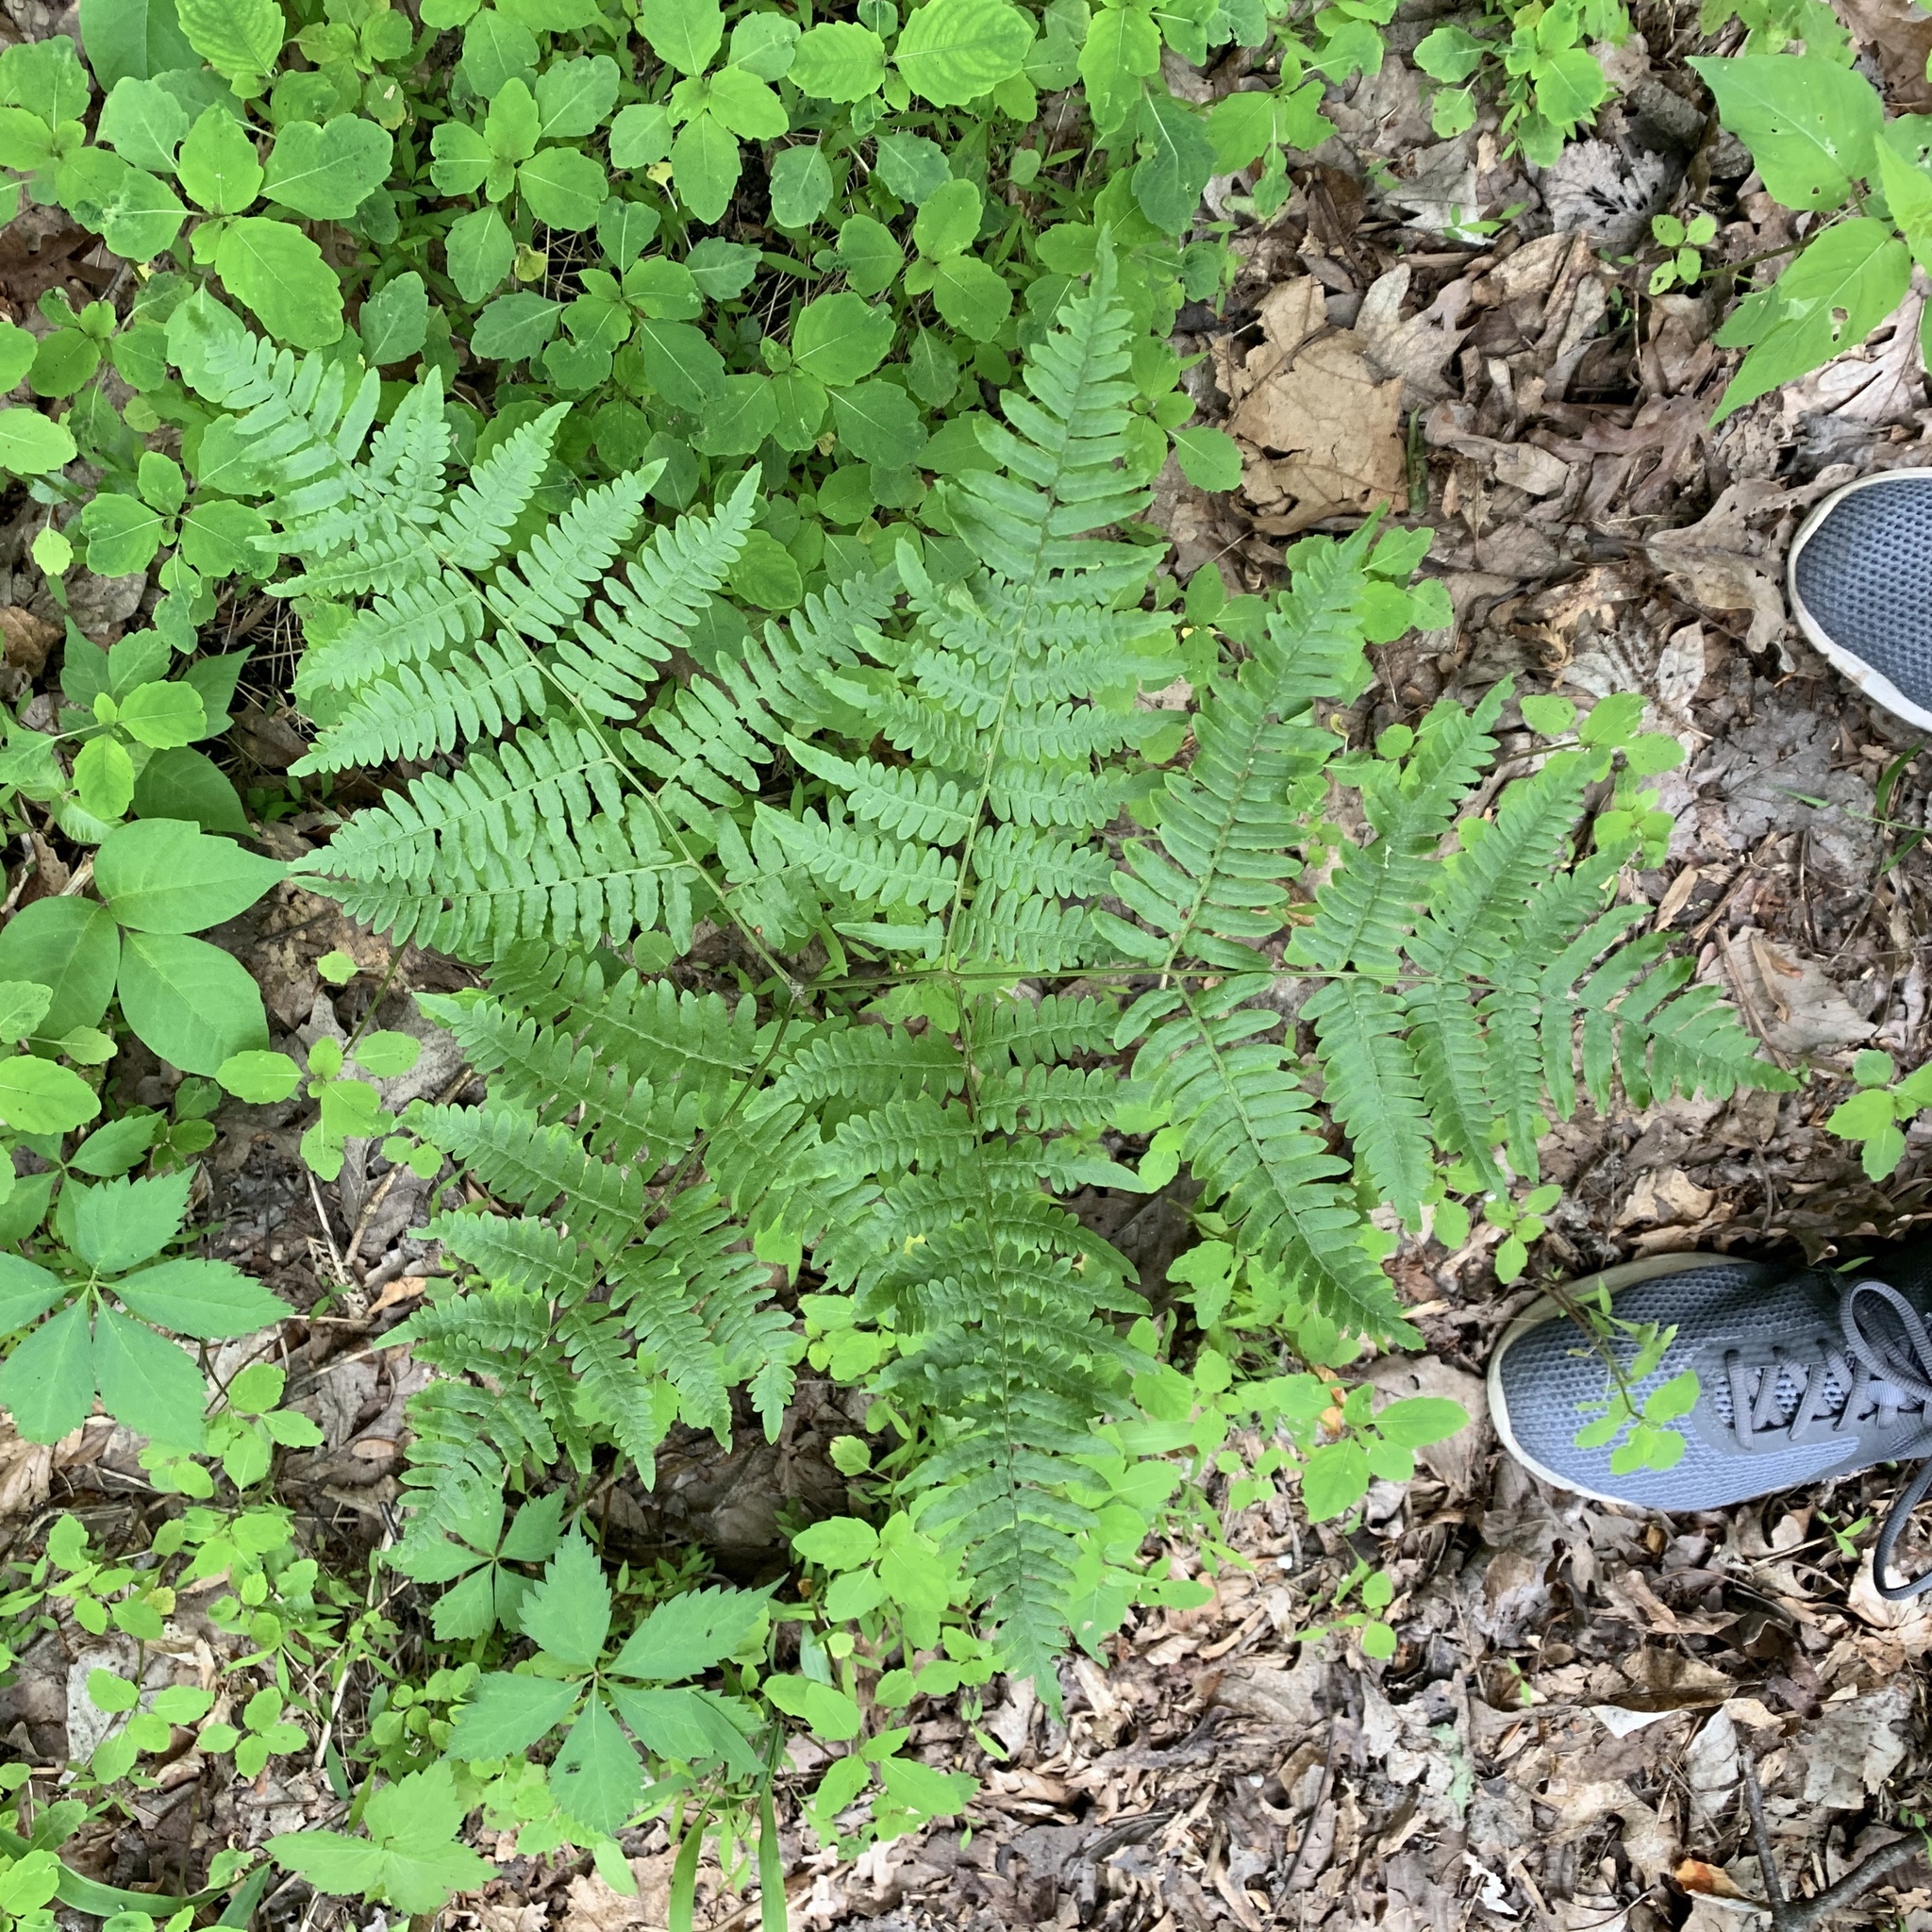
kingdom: Plantae
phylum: Tracheophyta
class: Polypodiopsida
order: Polypodiales
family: Dennstaedtiaceae
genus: Pteridium
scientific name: Pteridium aquilinum
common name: Bracken
